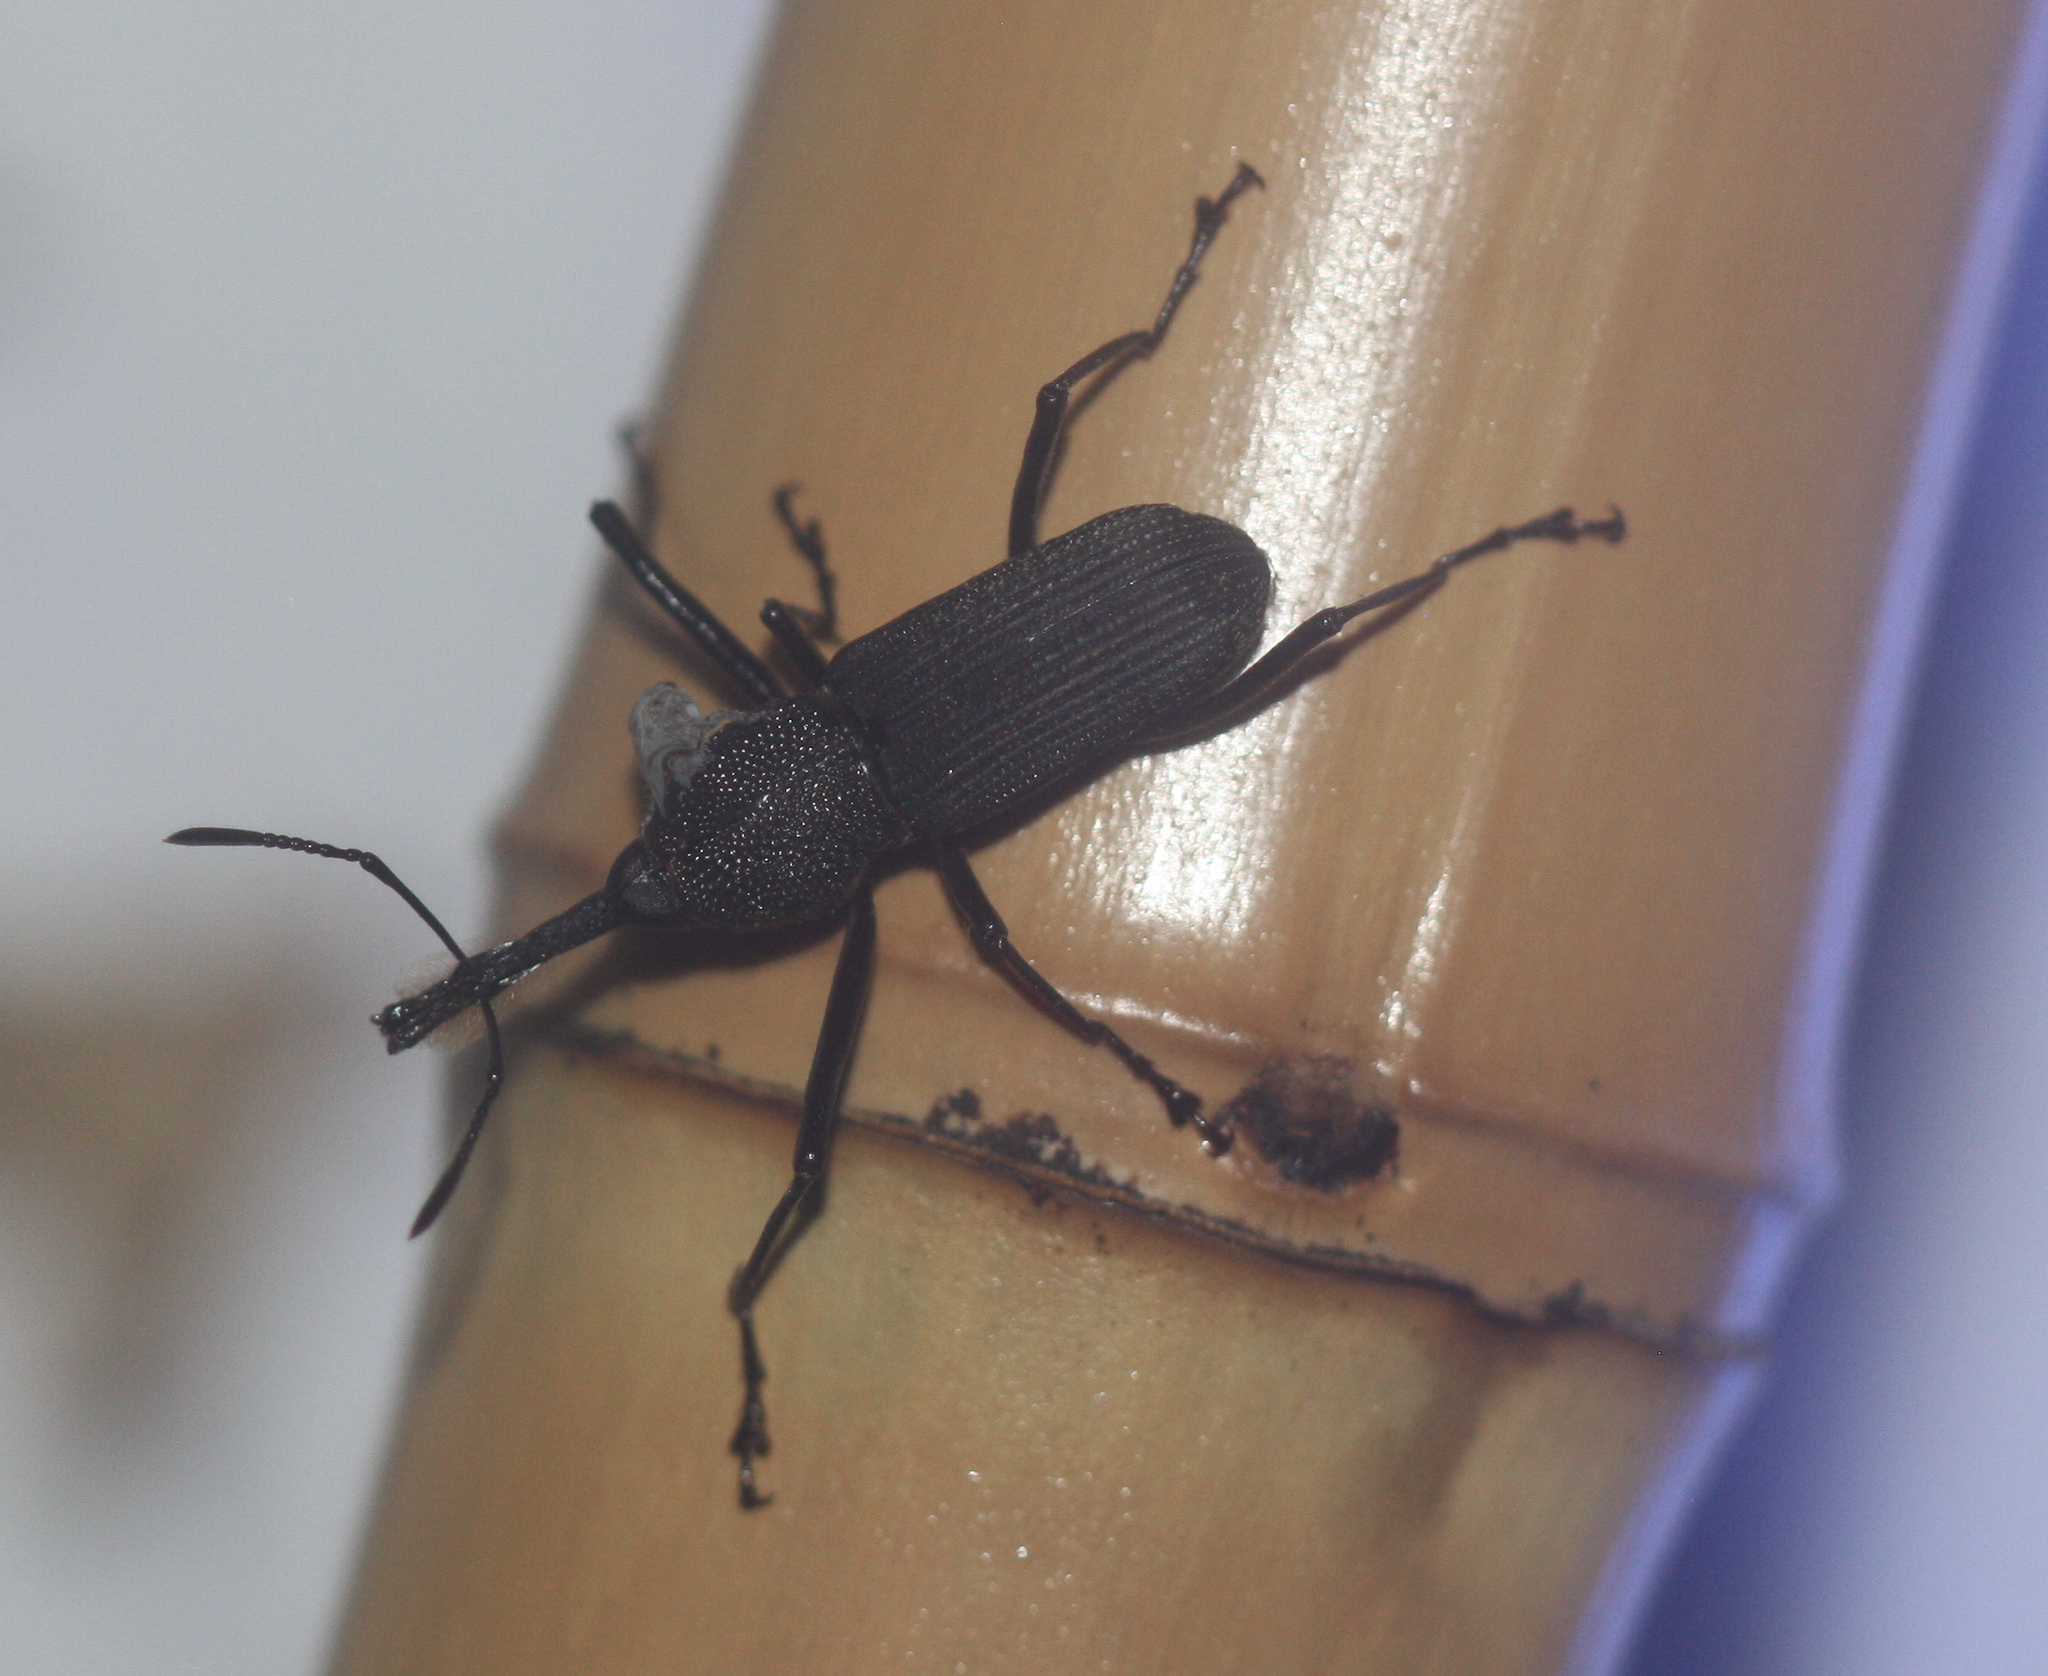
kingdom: Animalia
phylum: Arthropoda
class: Insecta
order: Coleoptera
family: Dryophthoridae
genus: Rhinostomus
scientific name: Rhinostomus barbirostris
